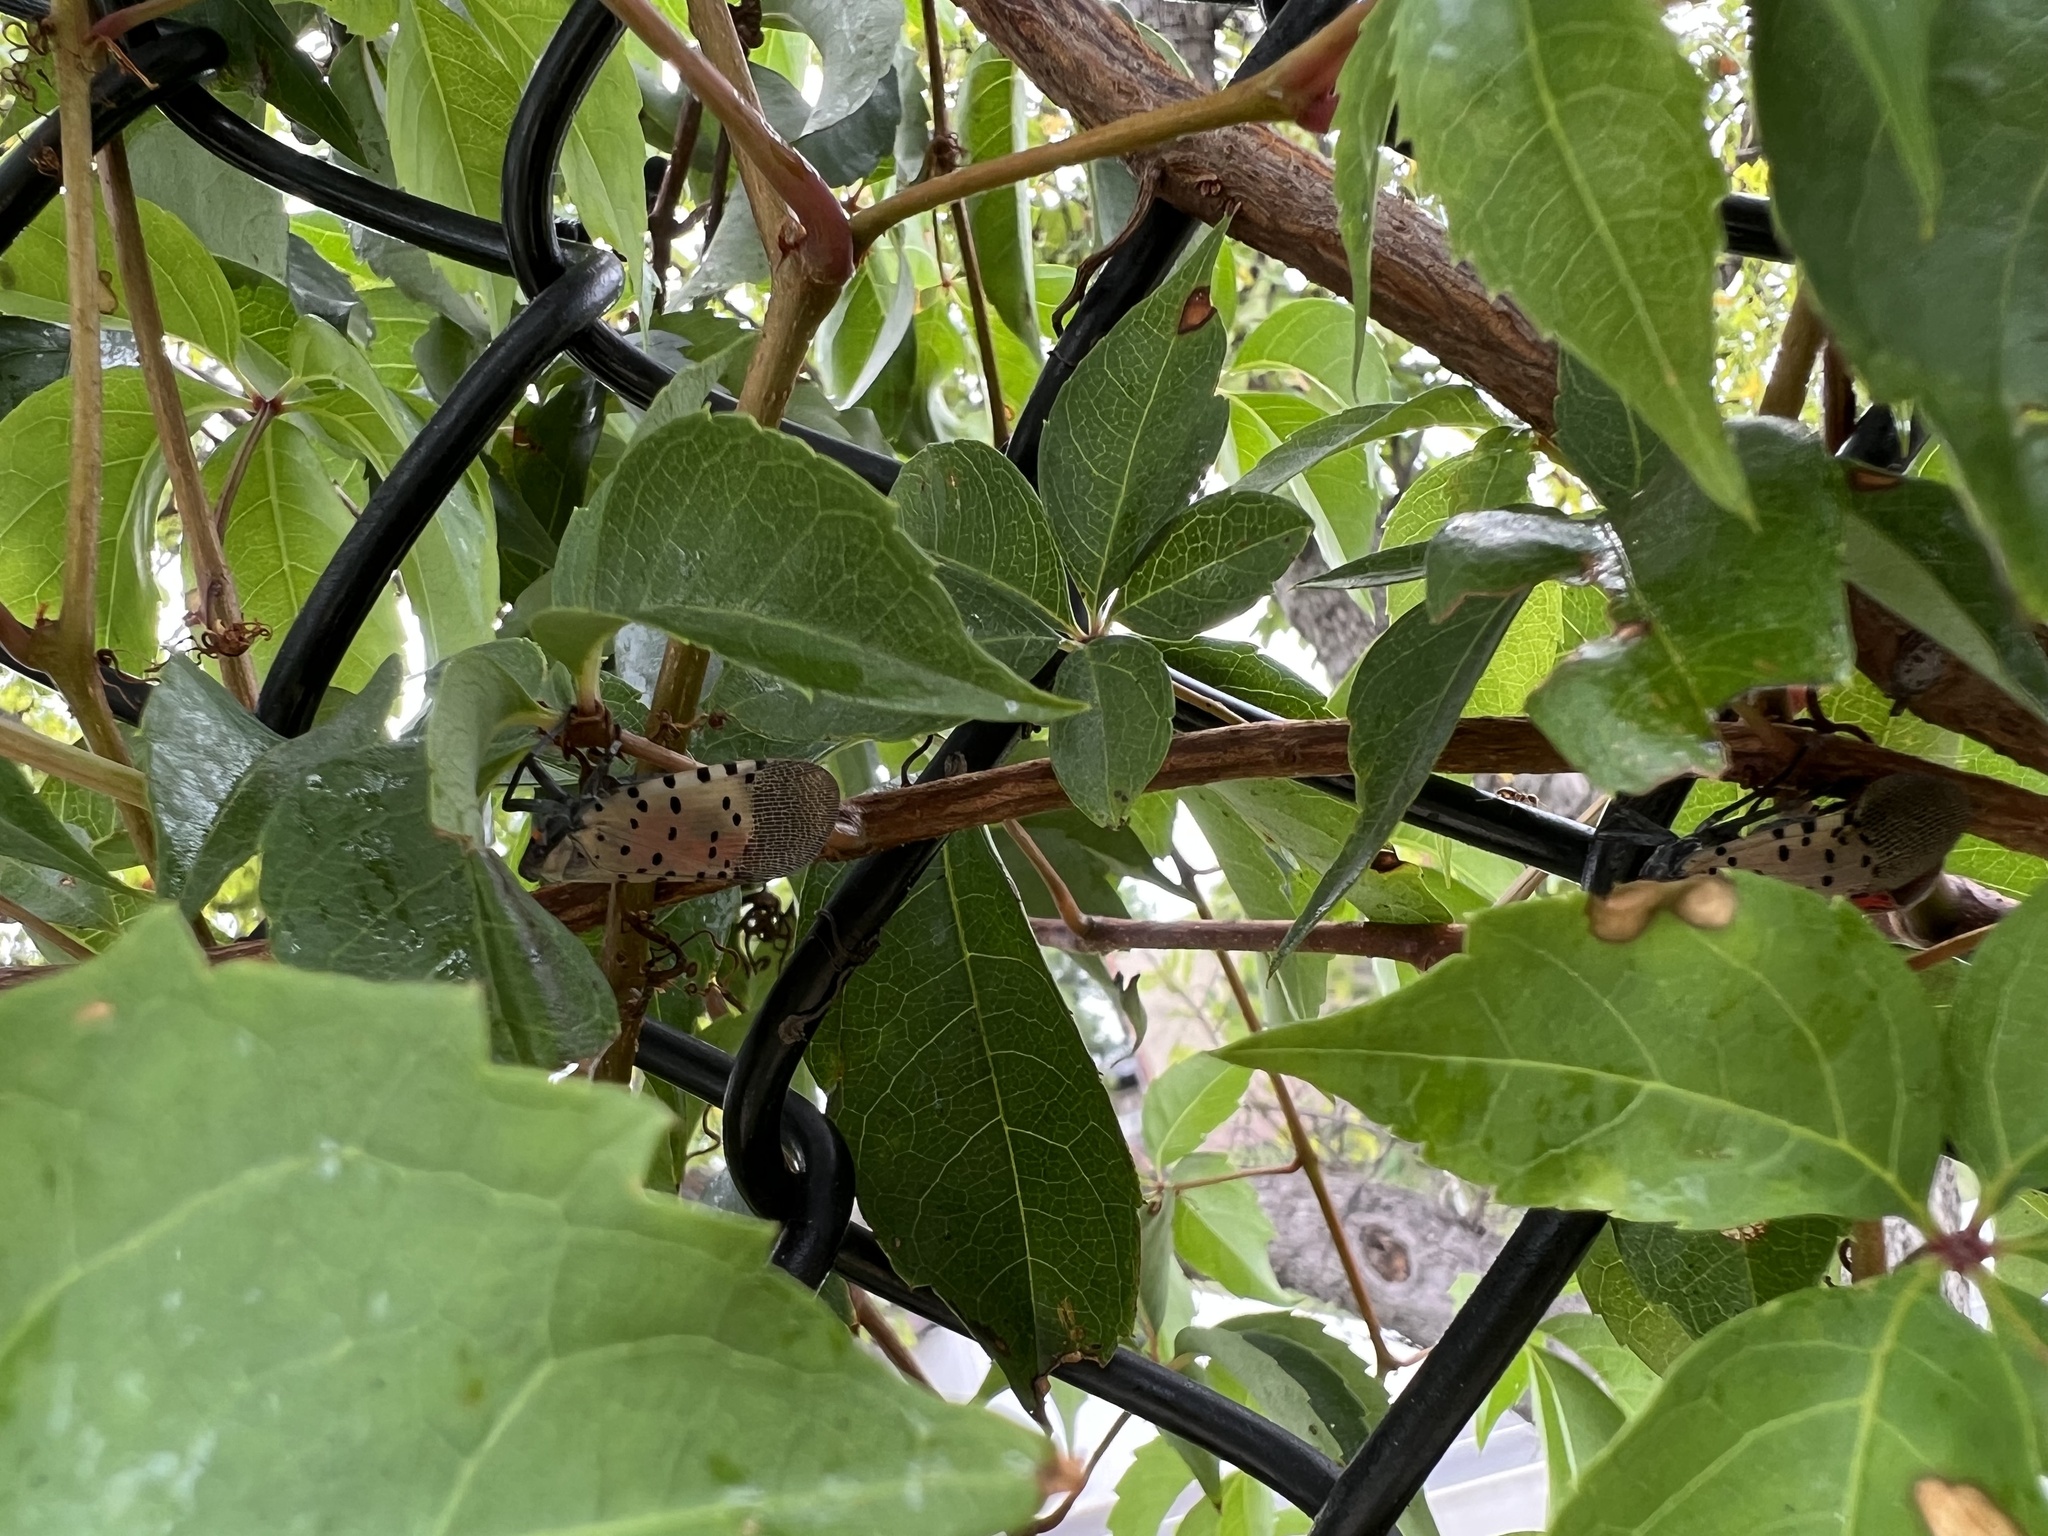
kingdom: Animalia
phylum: Arthropoda
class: Insecta
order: Hemiptera
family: Fulgoridae
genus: Lycorma
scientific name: Lycorma delicatula
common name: Spotted lanternfly
